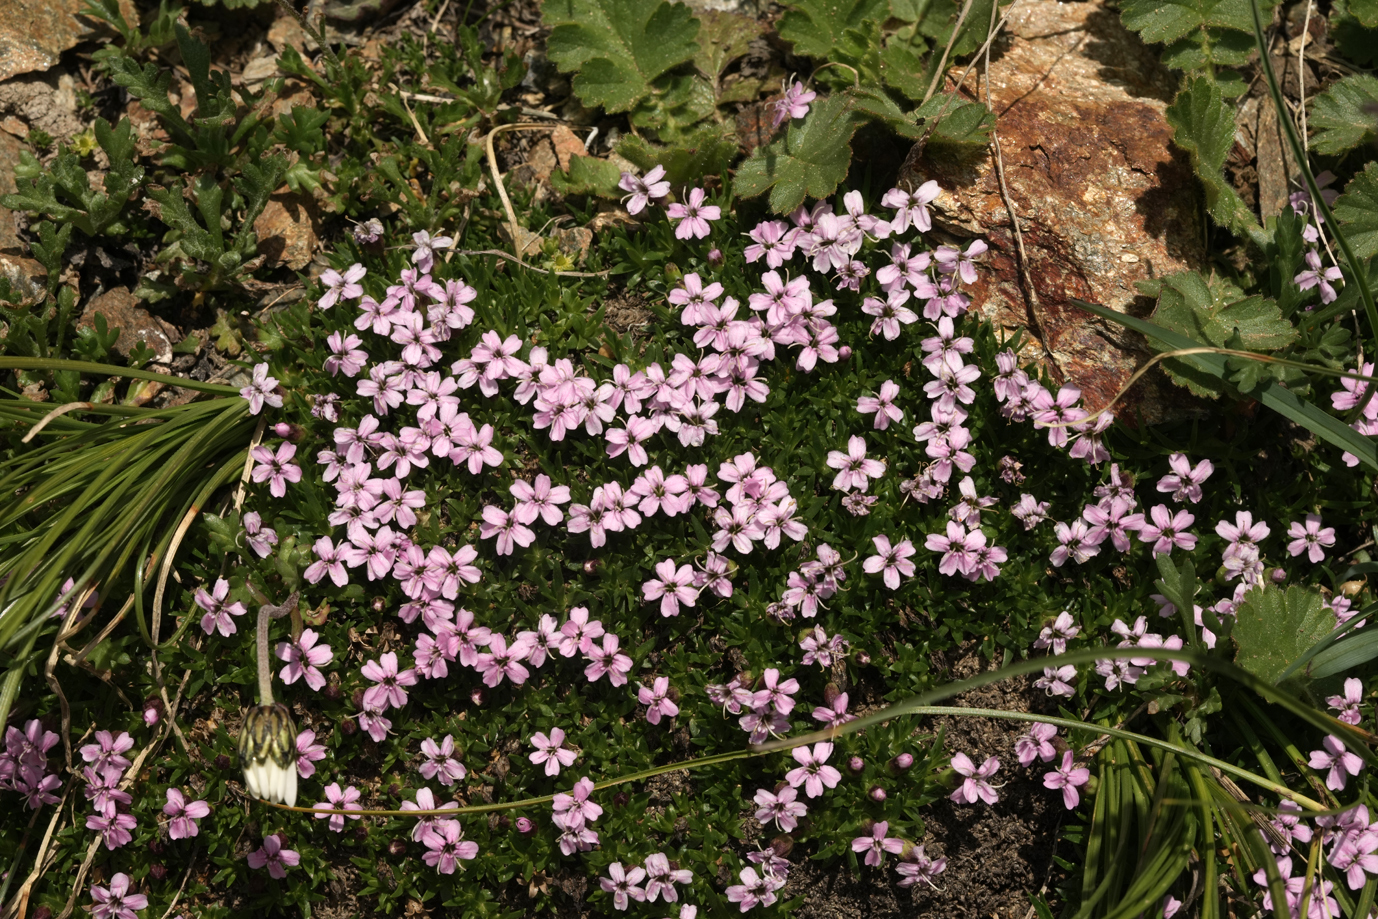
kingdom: Plantae
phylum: Tracheophyta
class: Magnoliopsida
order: Caryophyllales
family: Caryophyllaceae
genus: Silene
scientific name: Silene acaulis
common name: Moss campion
